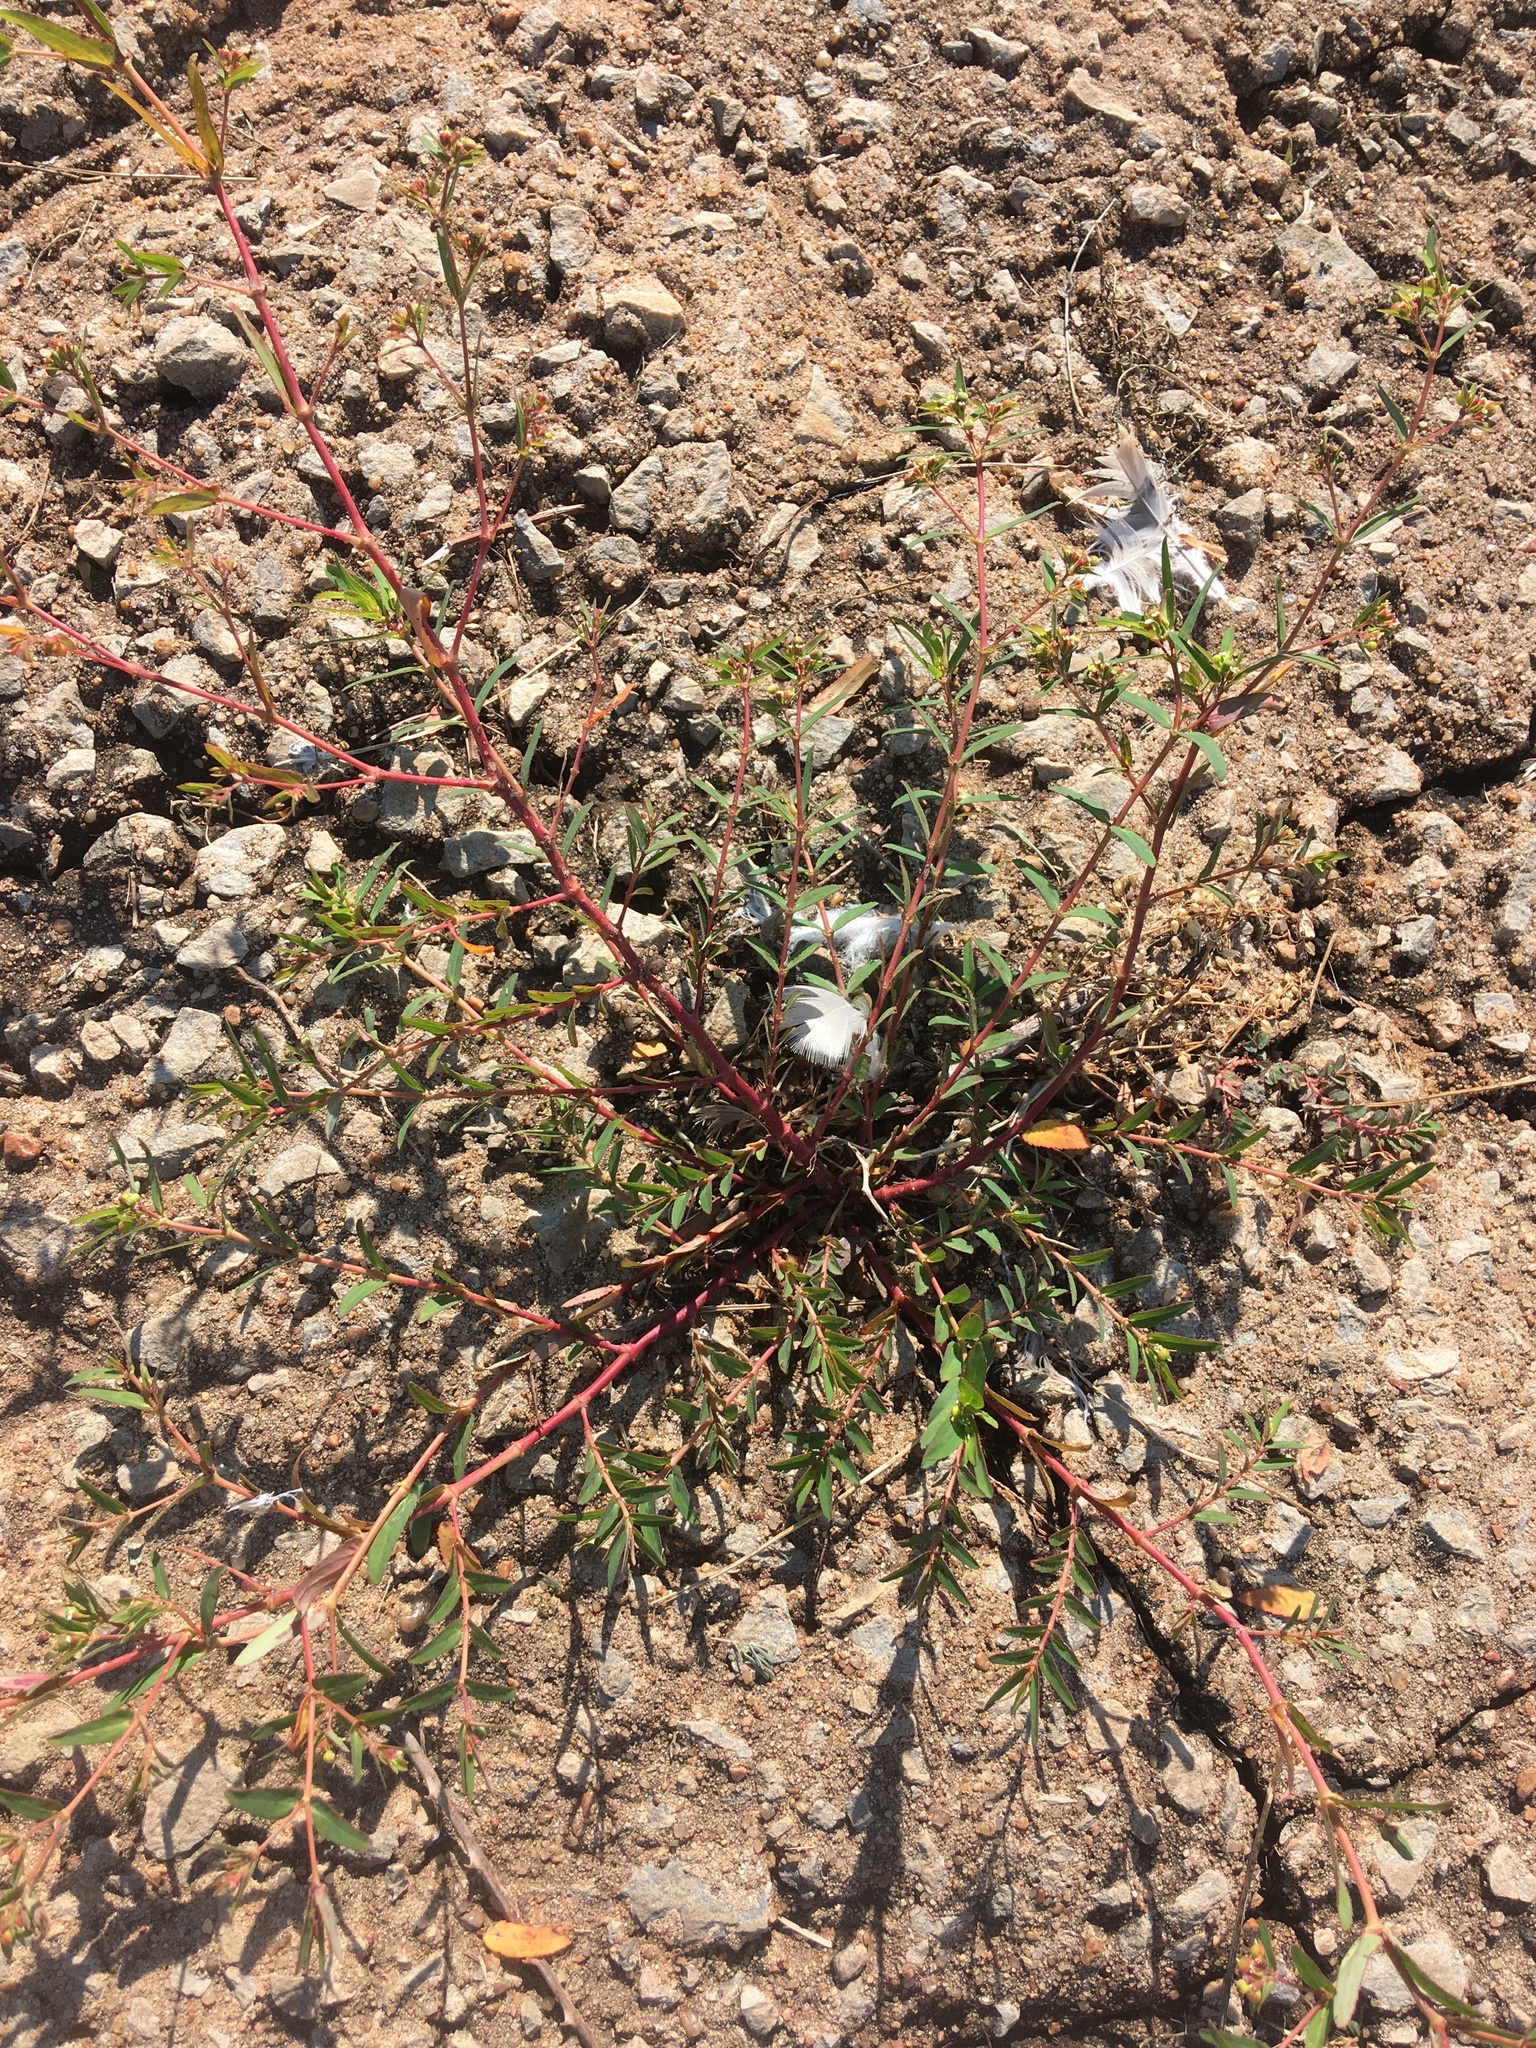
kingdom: Plantae
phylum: Tracheophyta
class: Magnoliopsida
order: Malpighiales
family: Euphorbiaceae
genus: Euphorbia
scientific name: Euphorbia nutans
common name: Eyebane
